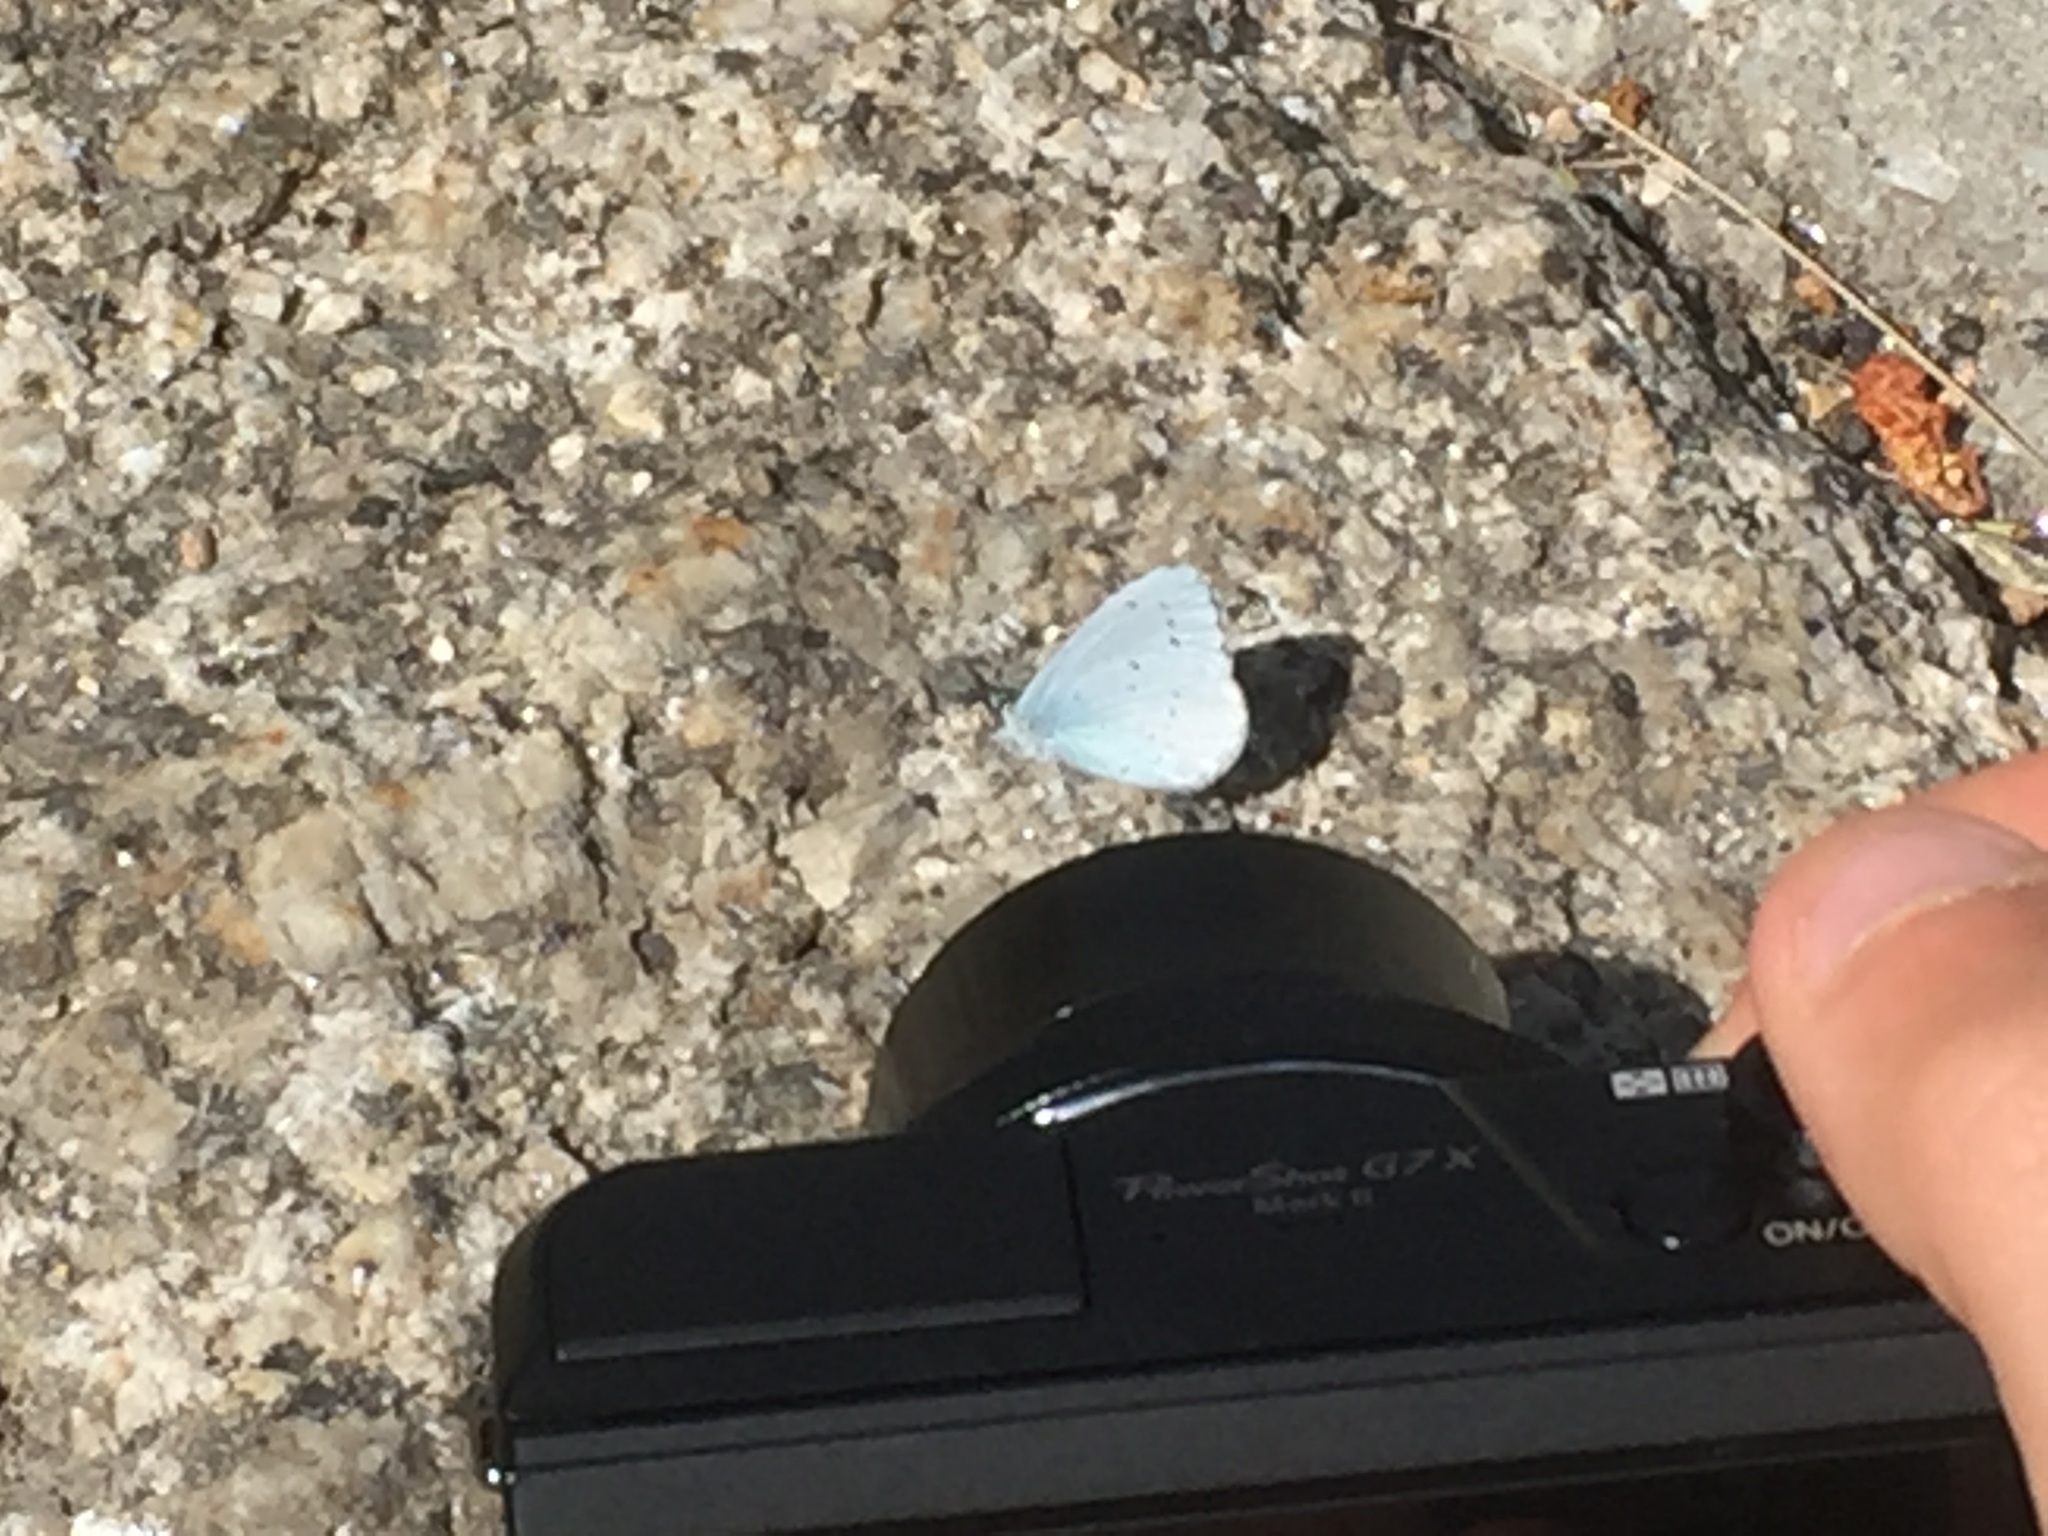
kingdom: Animalia
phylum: Arthropoda
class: Insecta
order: Lepidoptera
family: Lycaenidae
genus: Celastrina
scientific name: Celastrina argiolus
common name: Holly blue
